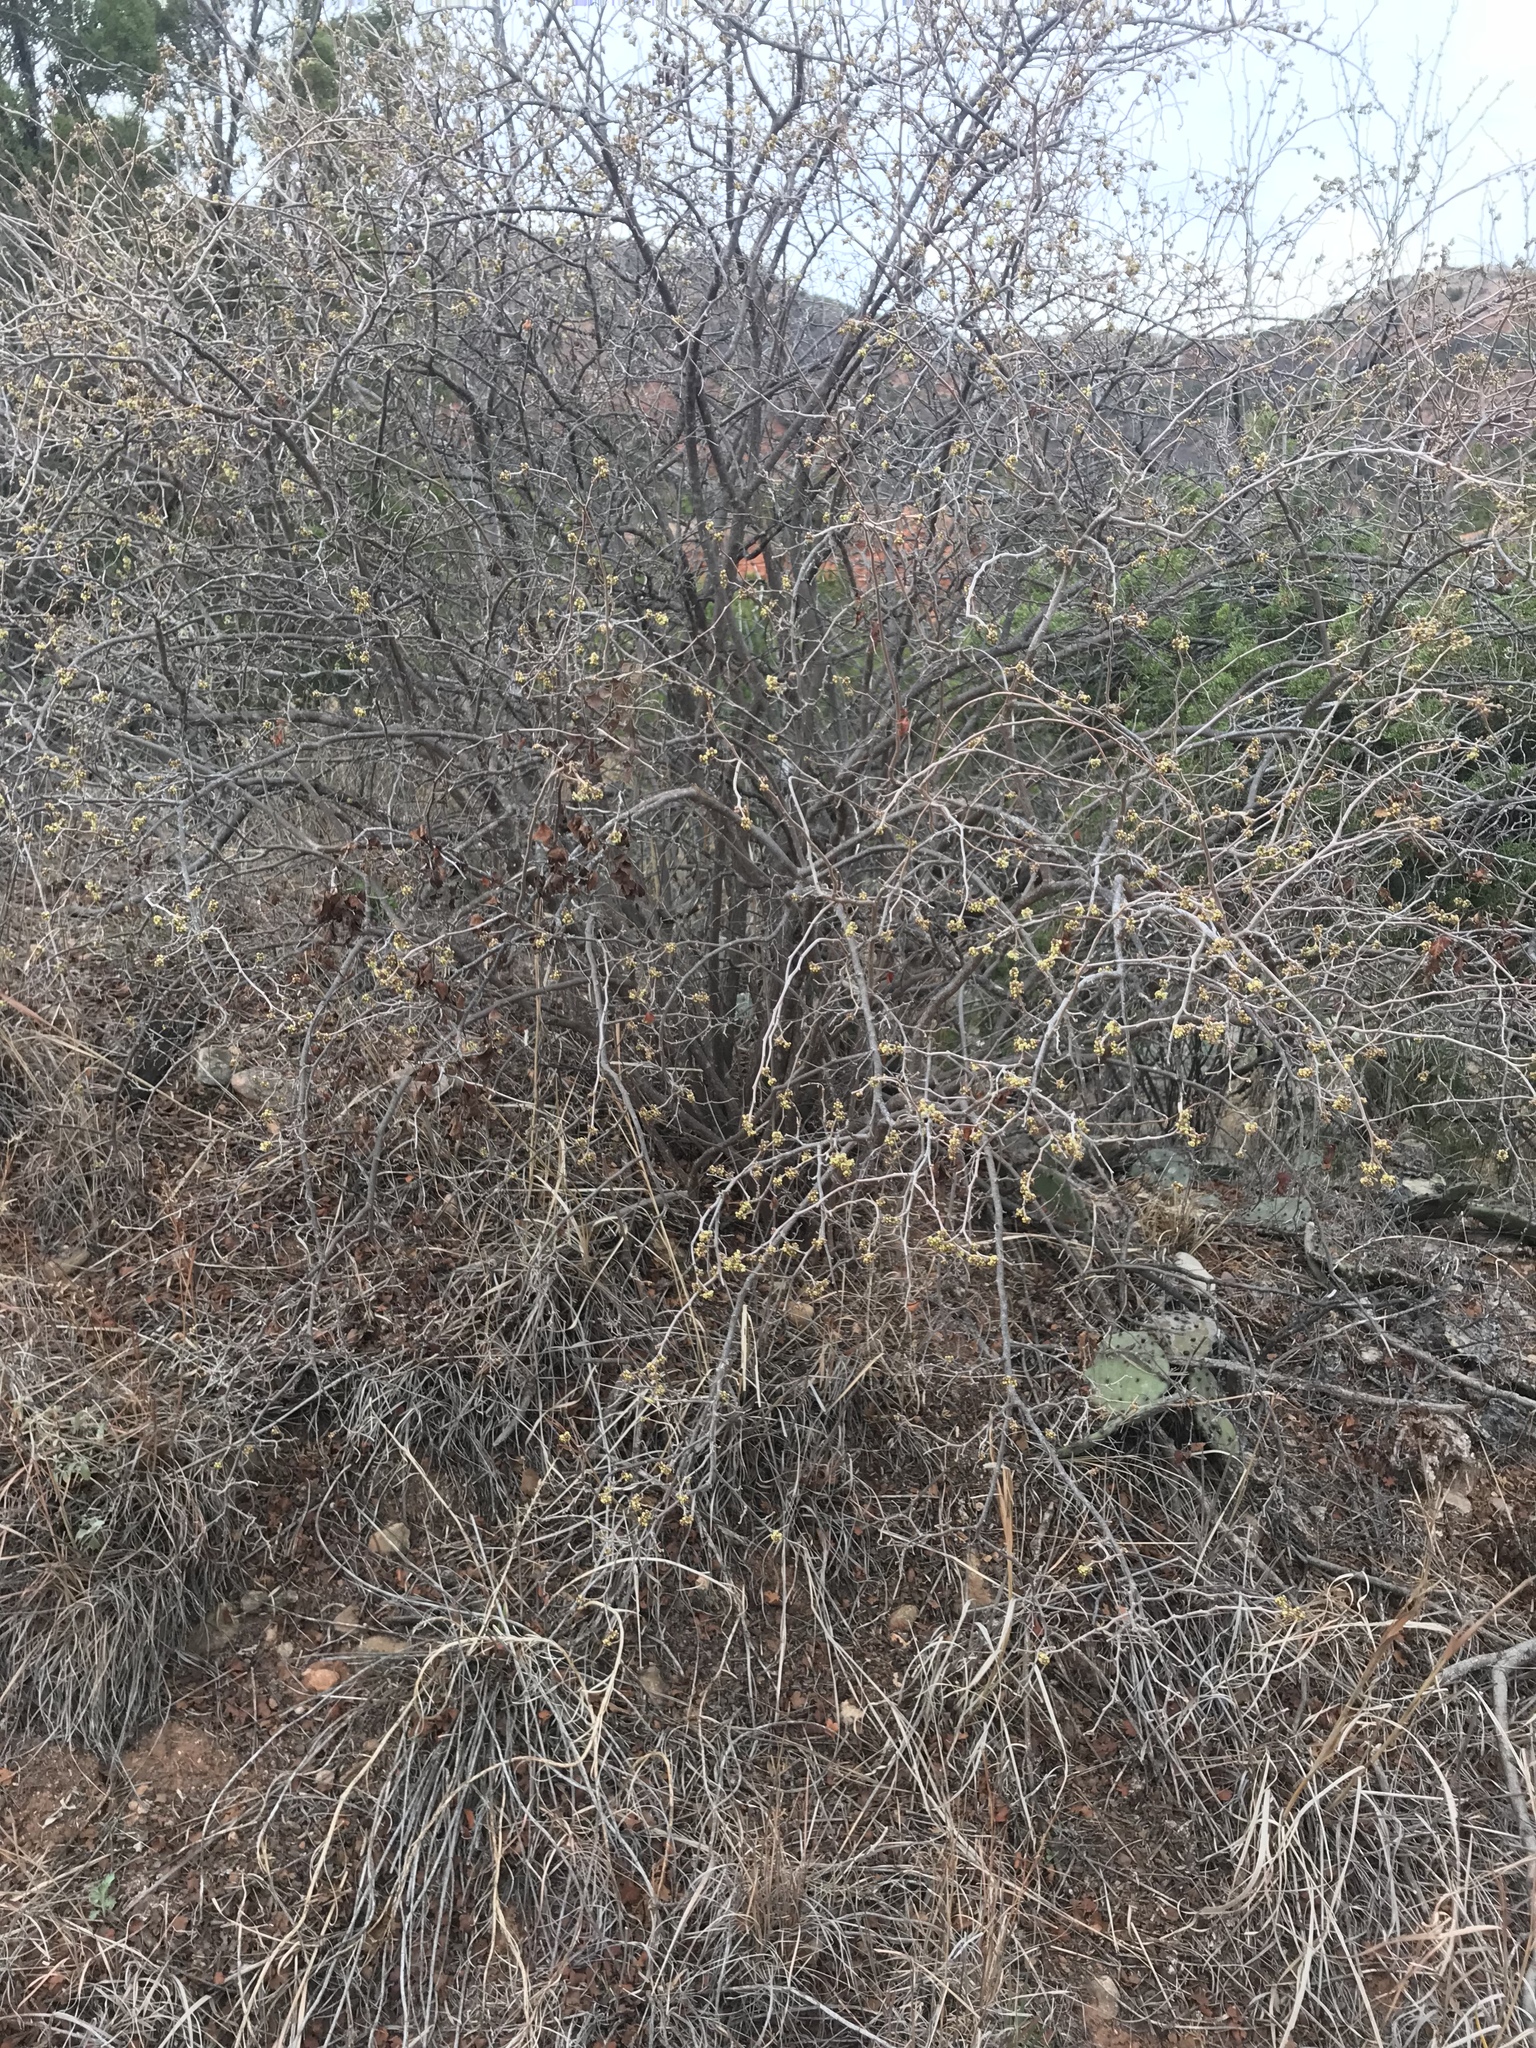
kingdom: Plantae
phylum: Tracheophyta
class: Magnoliopsida
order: Sapindales
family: Anacardiaceae
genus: Rhus
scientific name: Rhus aromatica
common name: Aromatic sumac
